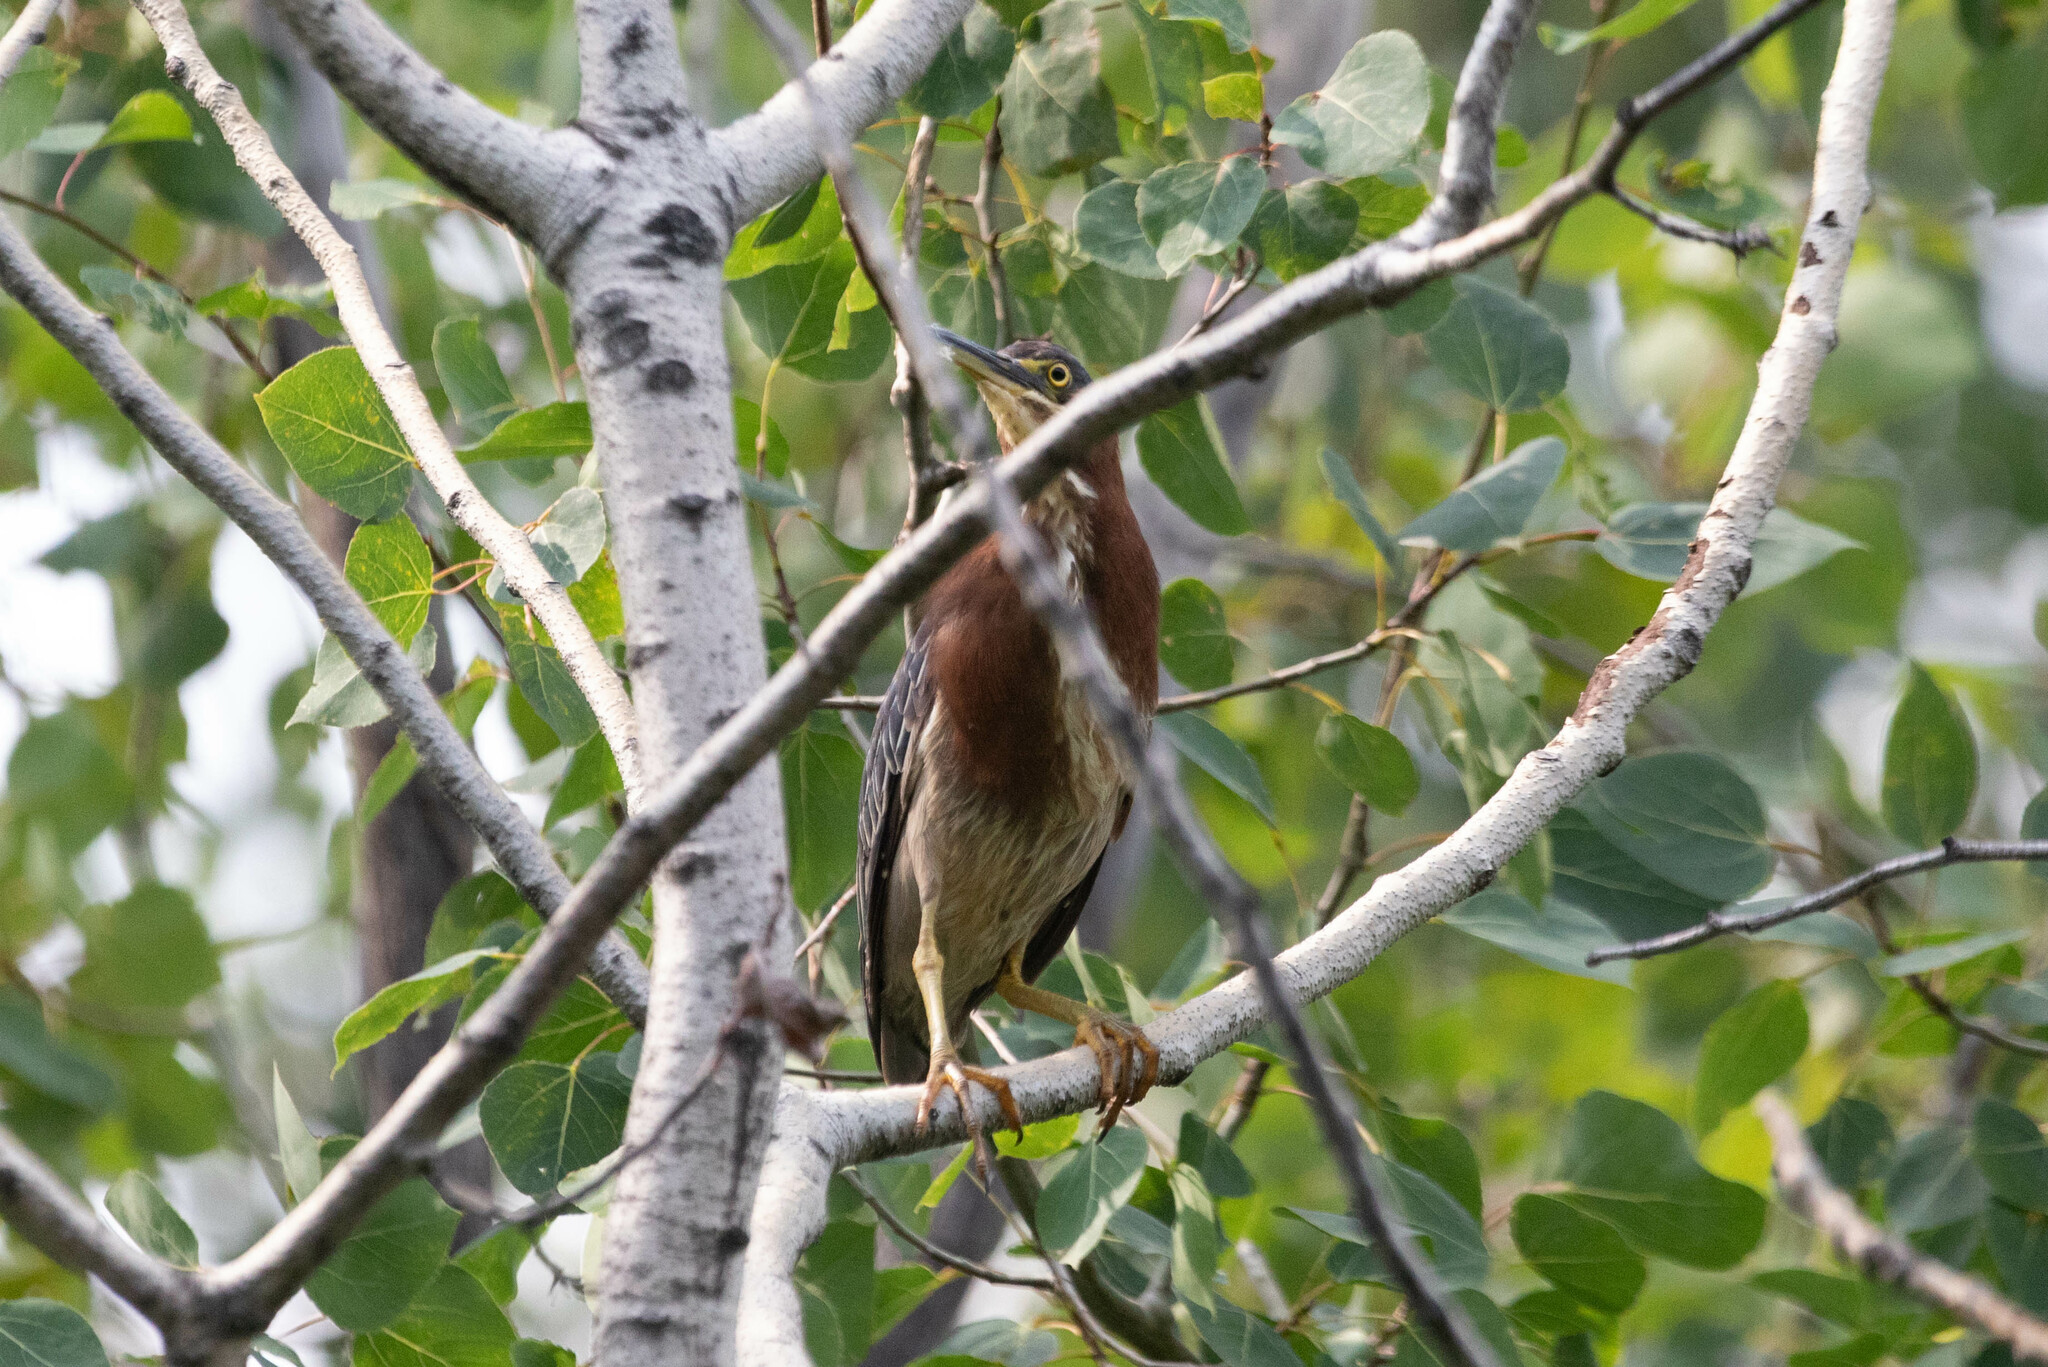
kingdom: Animalia
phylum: Chordata
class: Aves
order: Pelecaniformes
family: Ardeidae
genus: Butorides
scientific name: Butorides virescens
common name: Green heron
